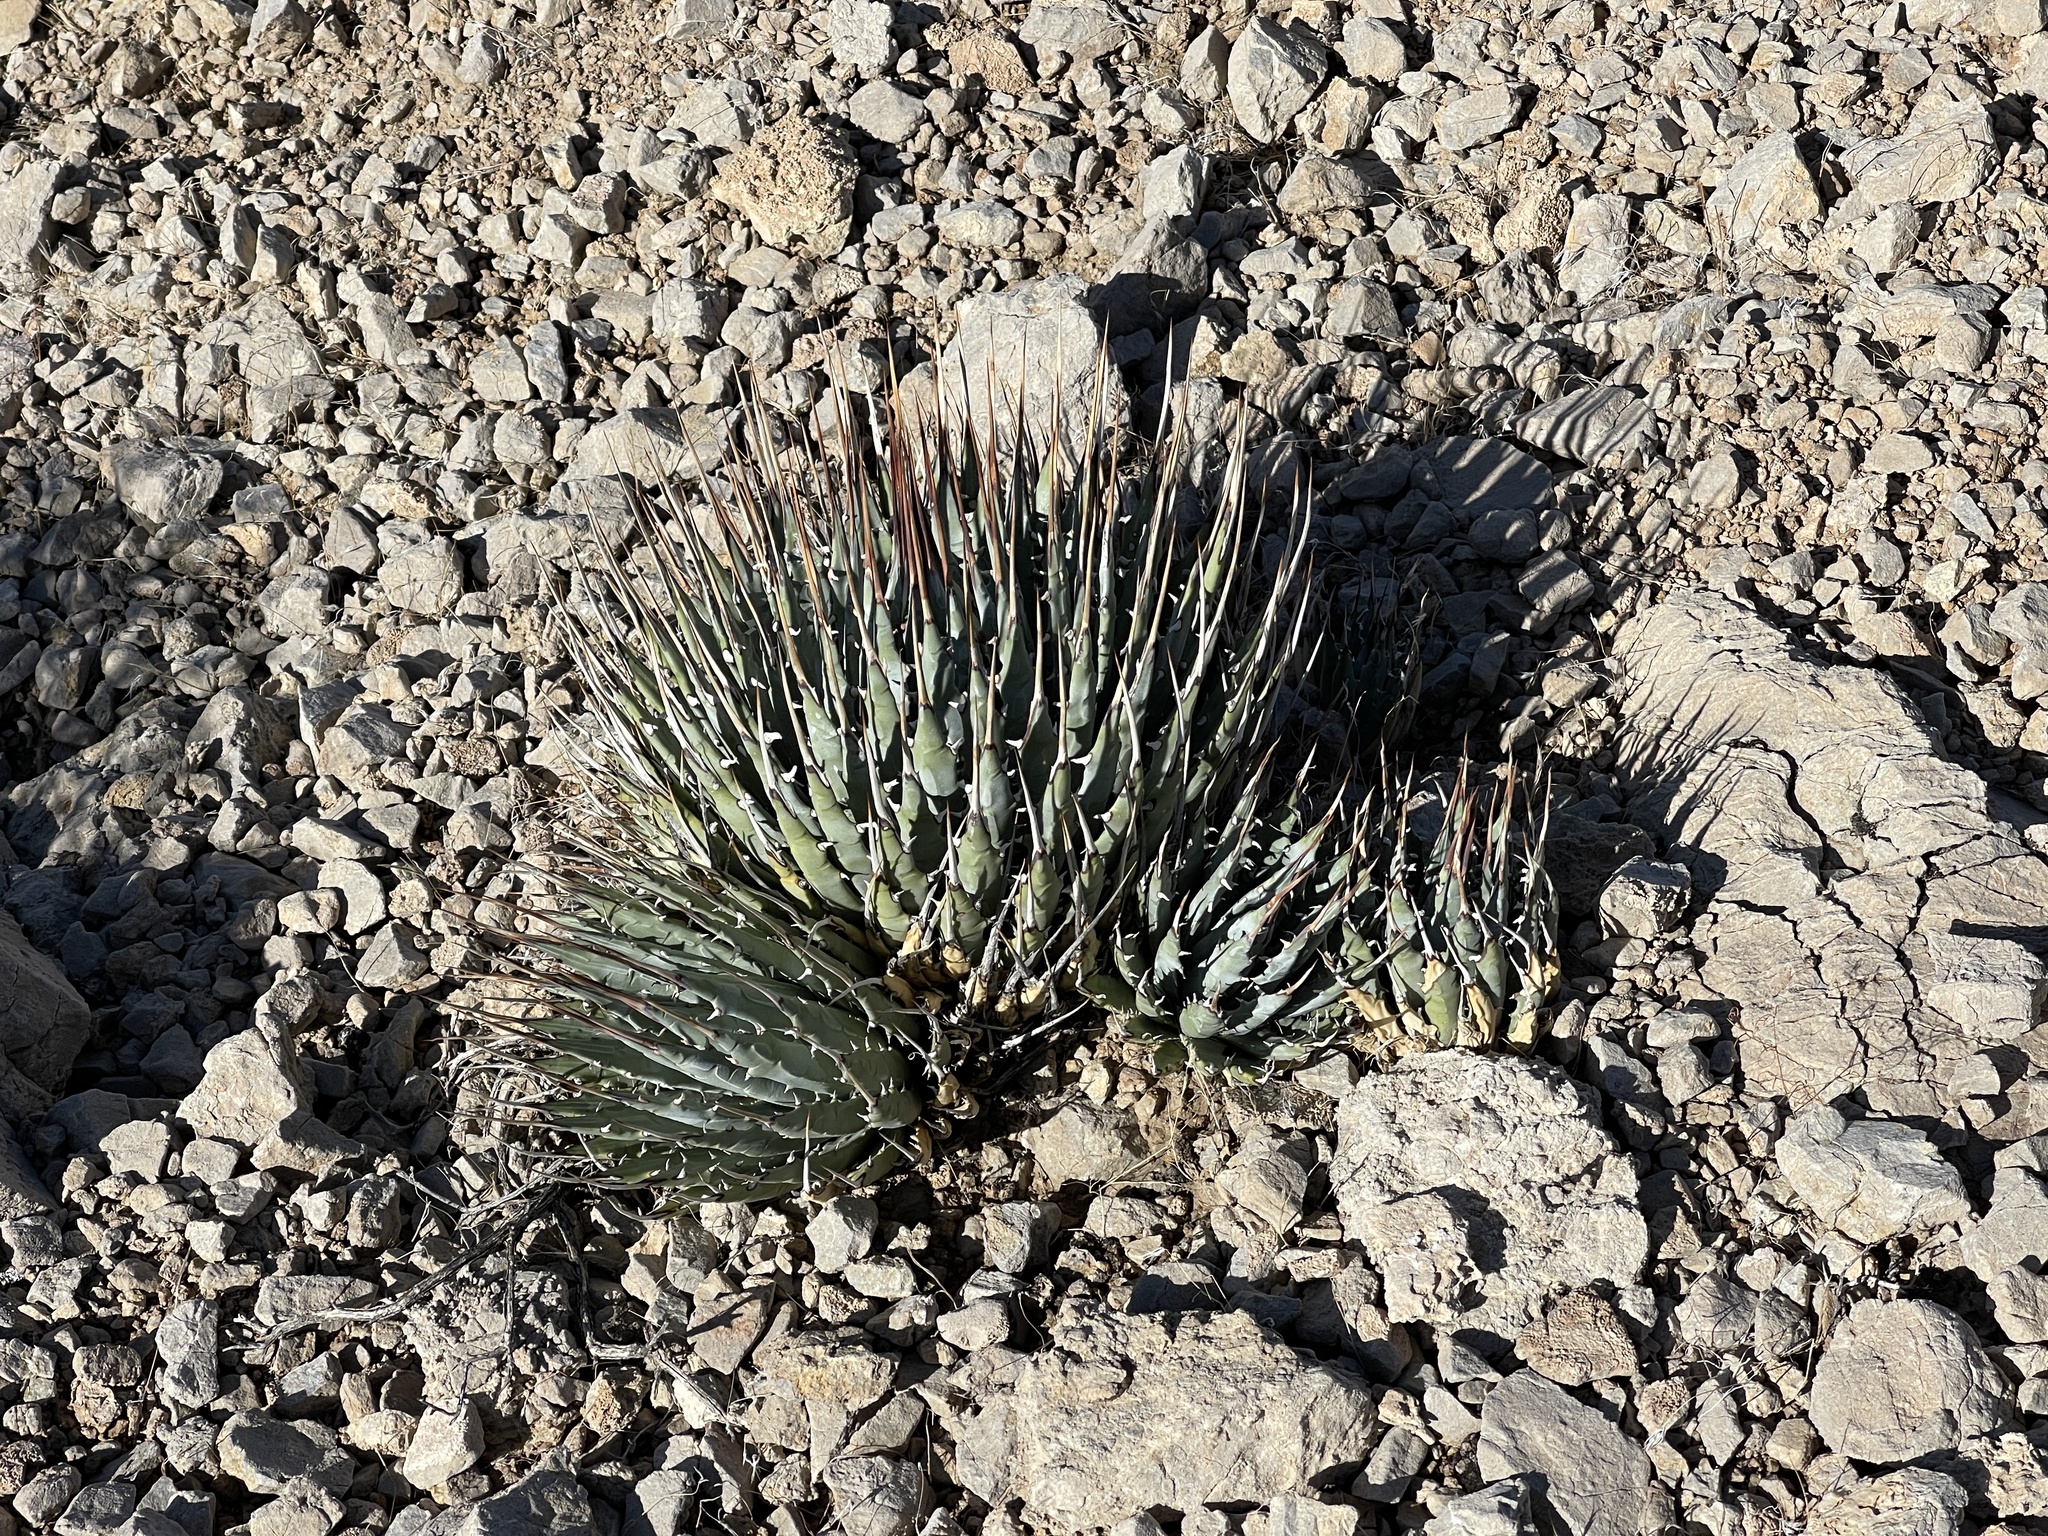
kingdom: Plantae
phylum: Tracheophyta
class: Liliopsida
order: Asparagales
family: Asparagaceae
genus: Agave
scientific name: Agave utahensis
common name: Utah agave
